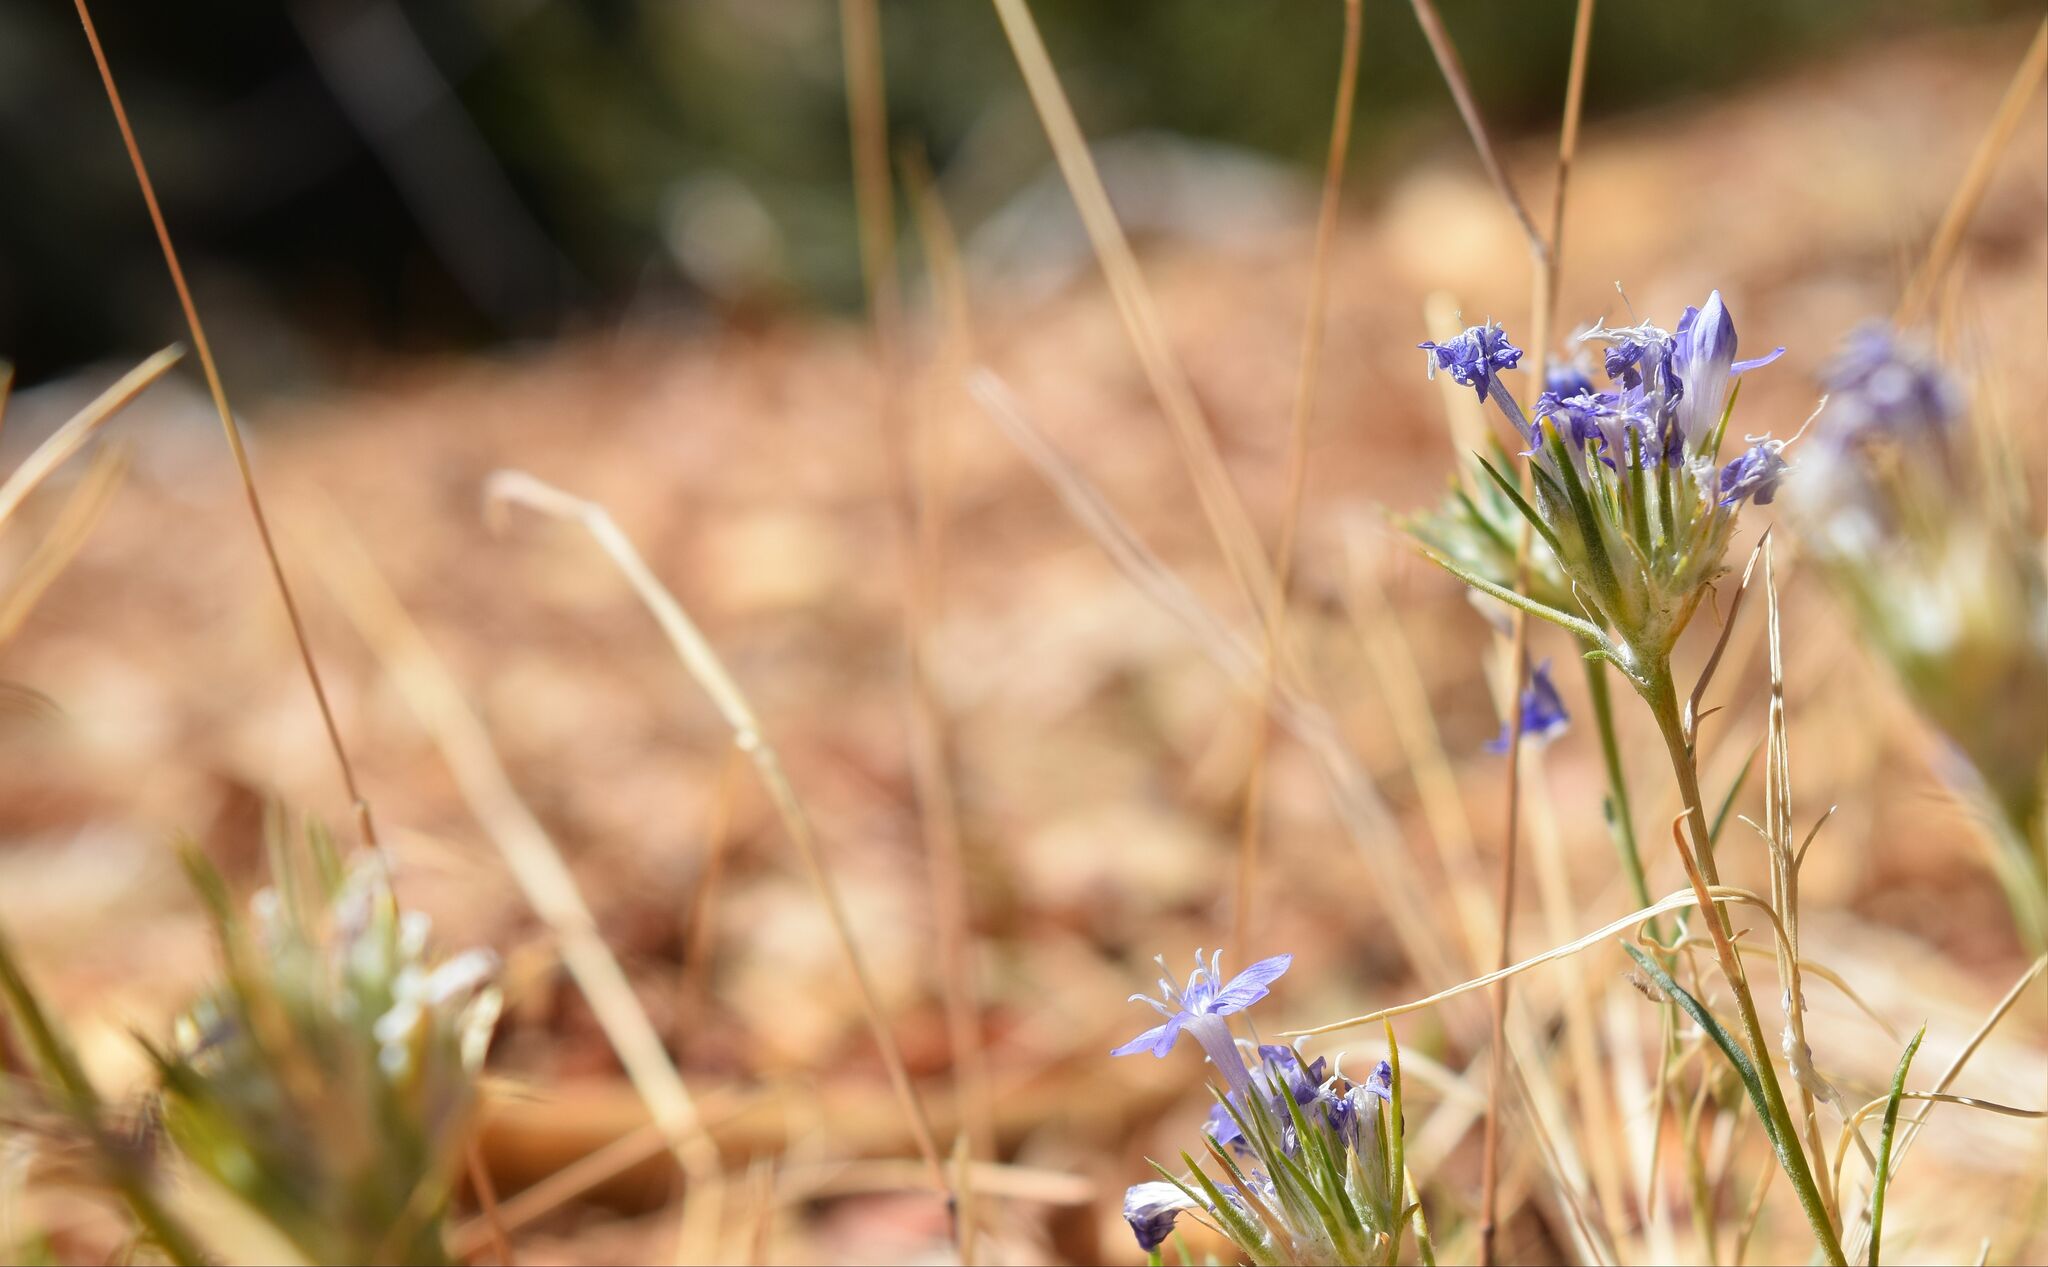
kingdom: Plantae
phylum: Tracheophyta
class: Magnoliopsida
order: Ericales
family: Polemoniaceae
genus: Eriastrum
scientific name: Eriastrum densifolium
